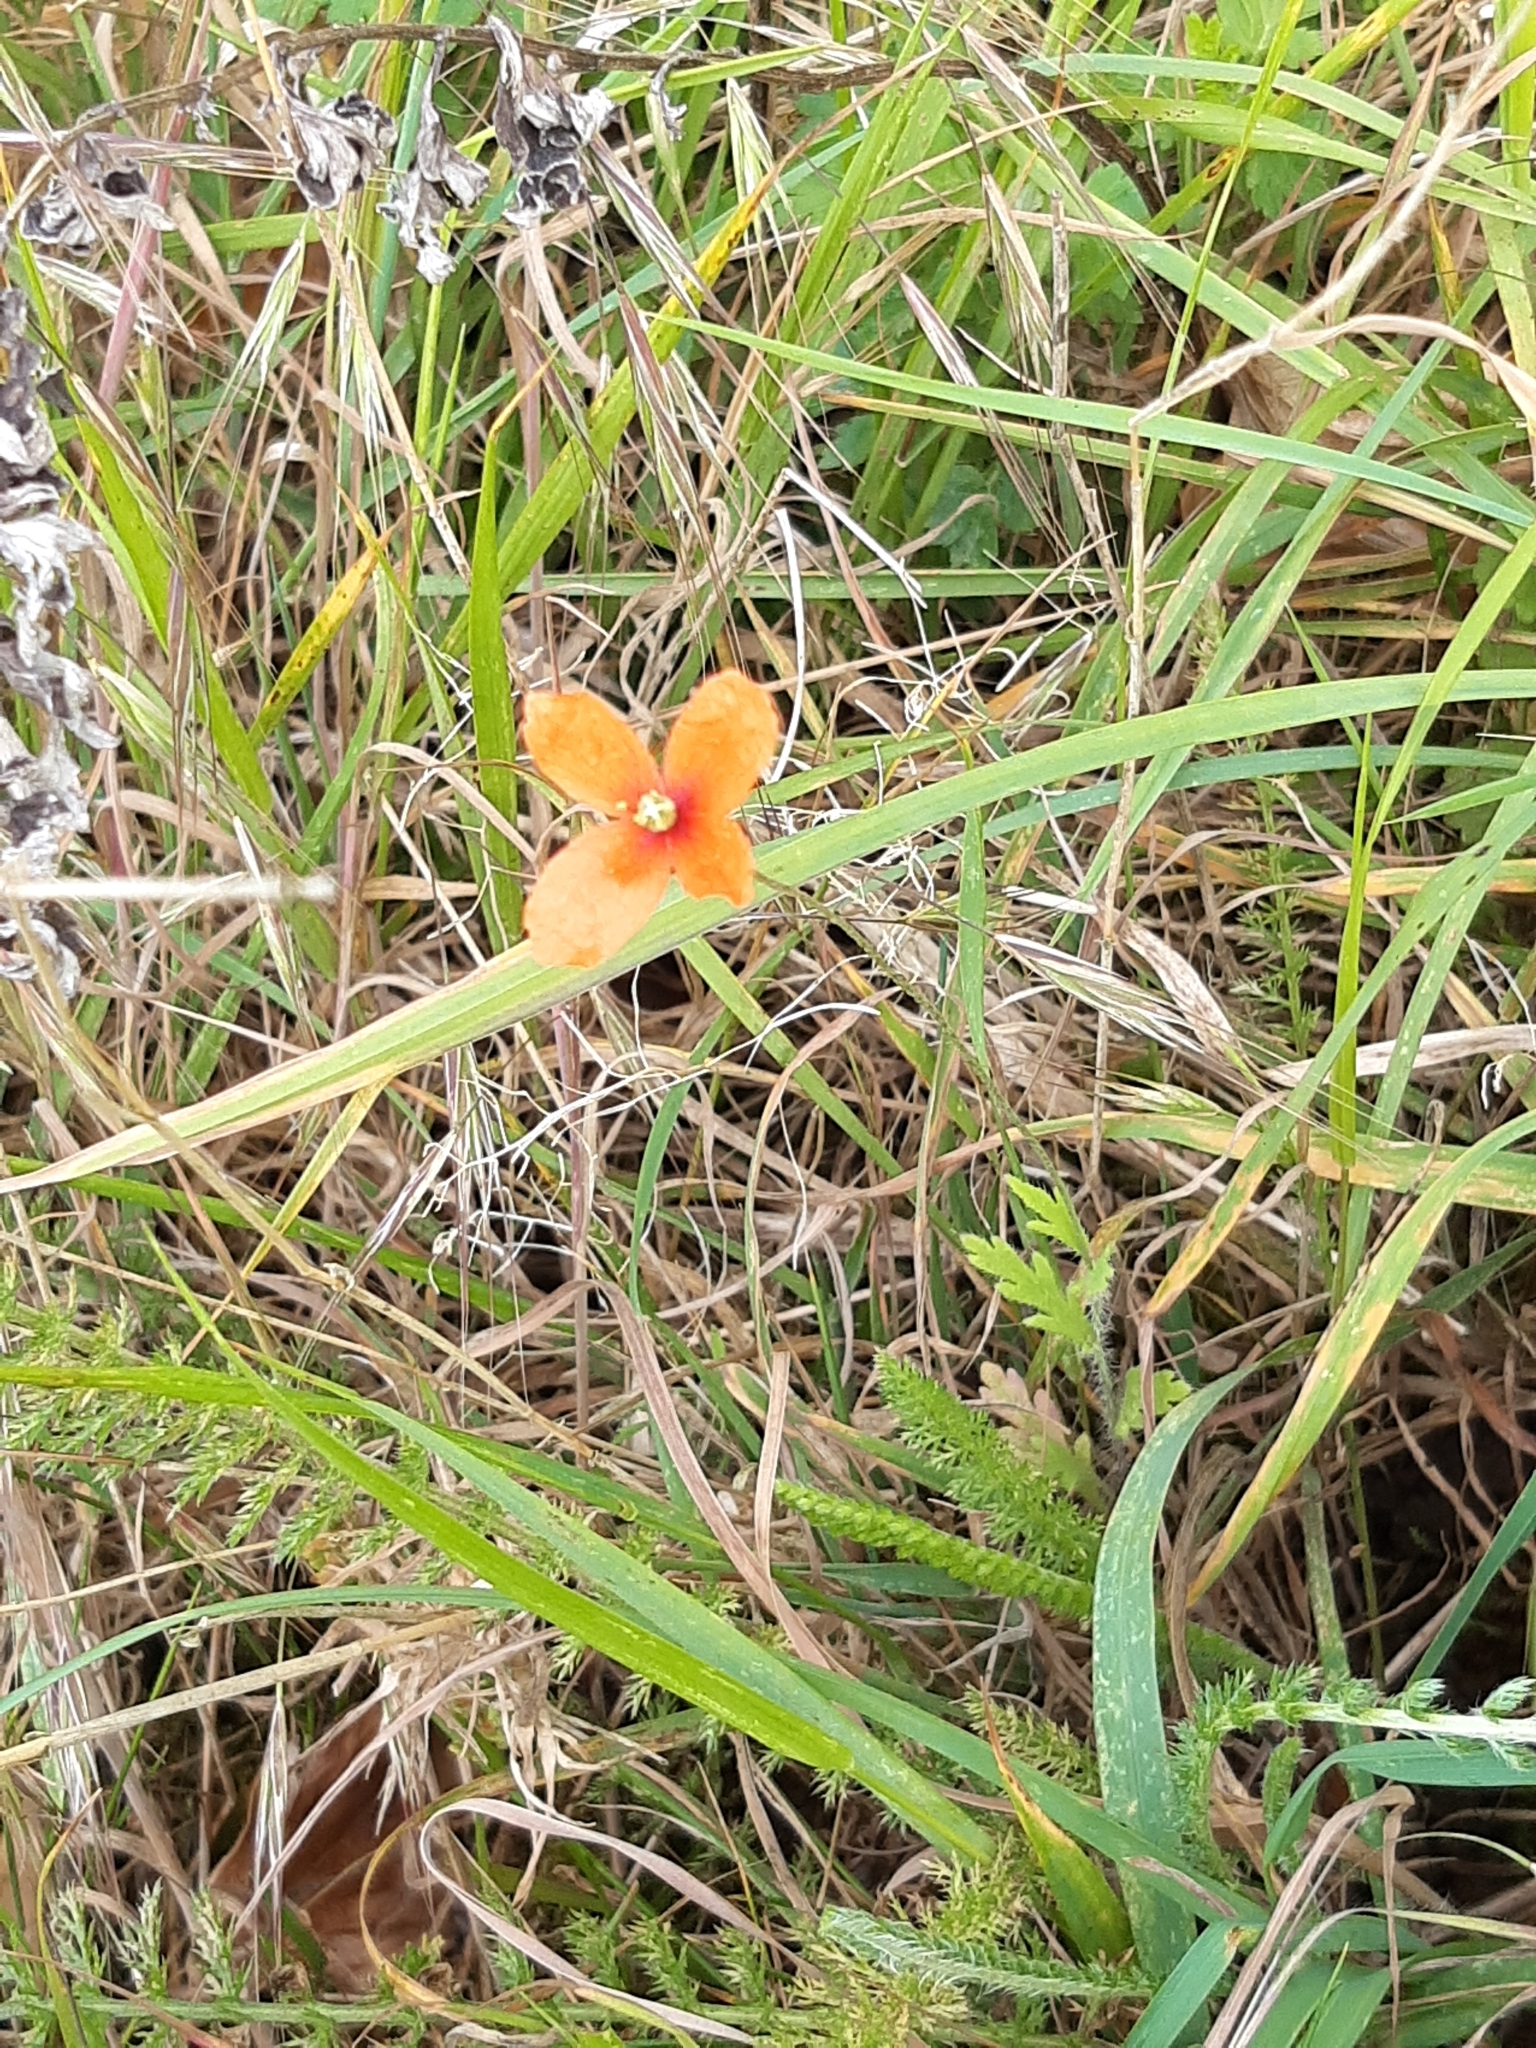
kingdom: Plantae
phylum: Tracheophyta
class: Magnoliopsida
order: Ranunculales
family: Papaveraceae
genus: Papaver
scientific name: Papaver dubium
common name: Long-headed poppy
